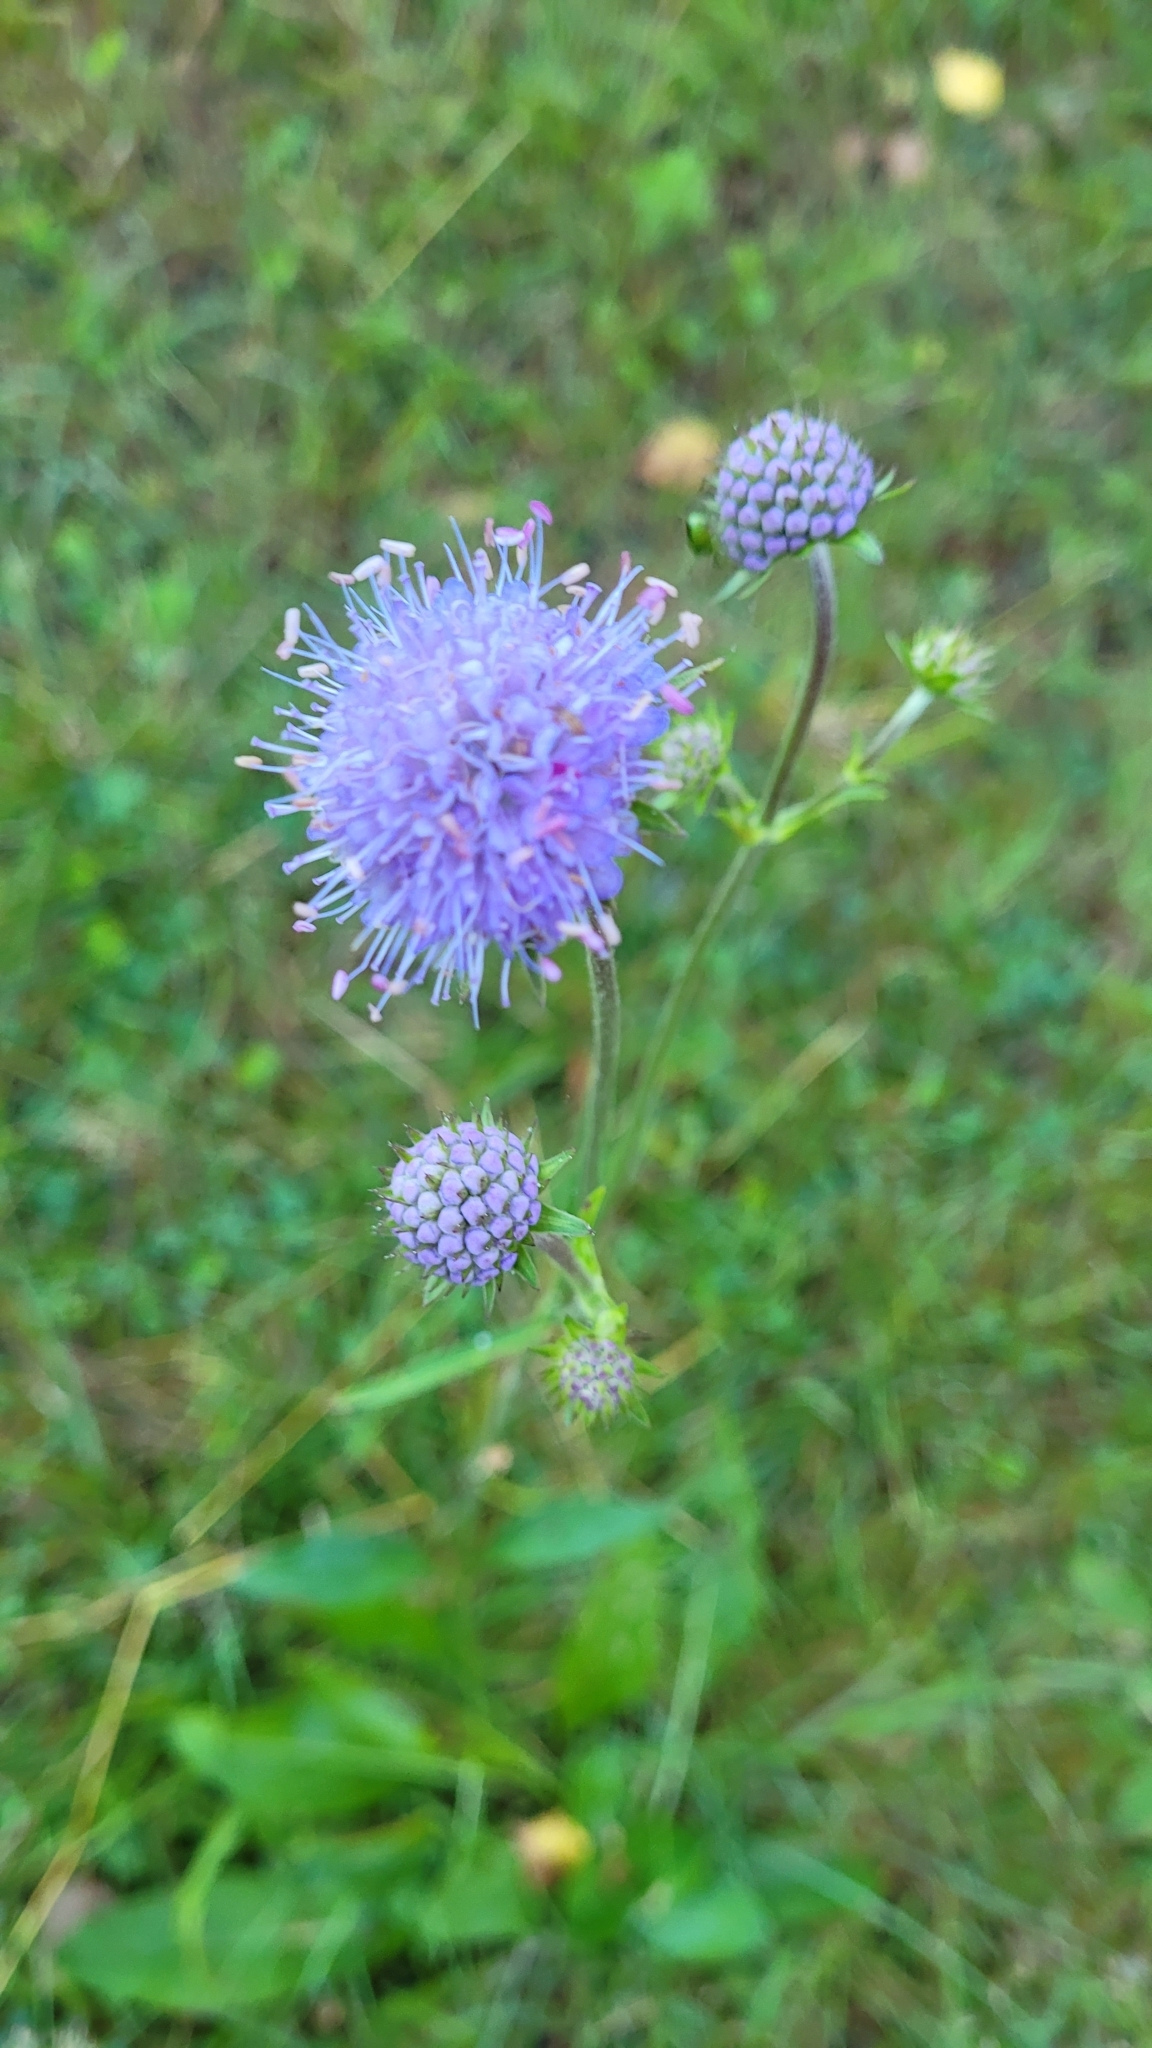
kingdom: Plantae
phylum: Tracheophyta
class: Magnoliopsida
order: Dipsacales
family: Caprifoliaceae
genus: Succisa
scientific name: Succisa pratensis
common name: Devil's-bit
